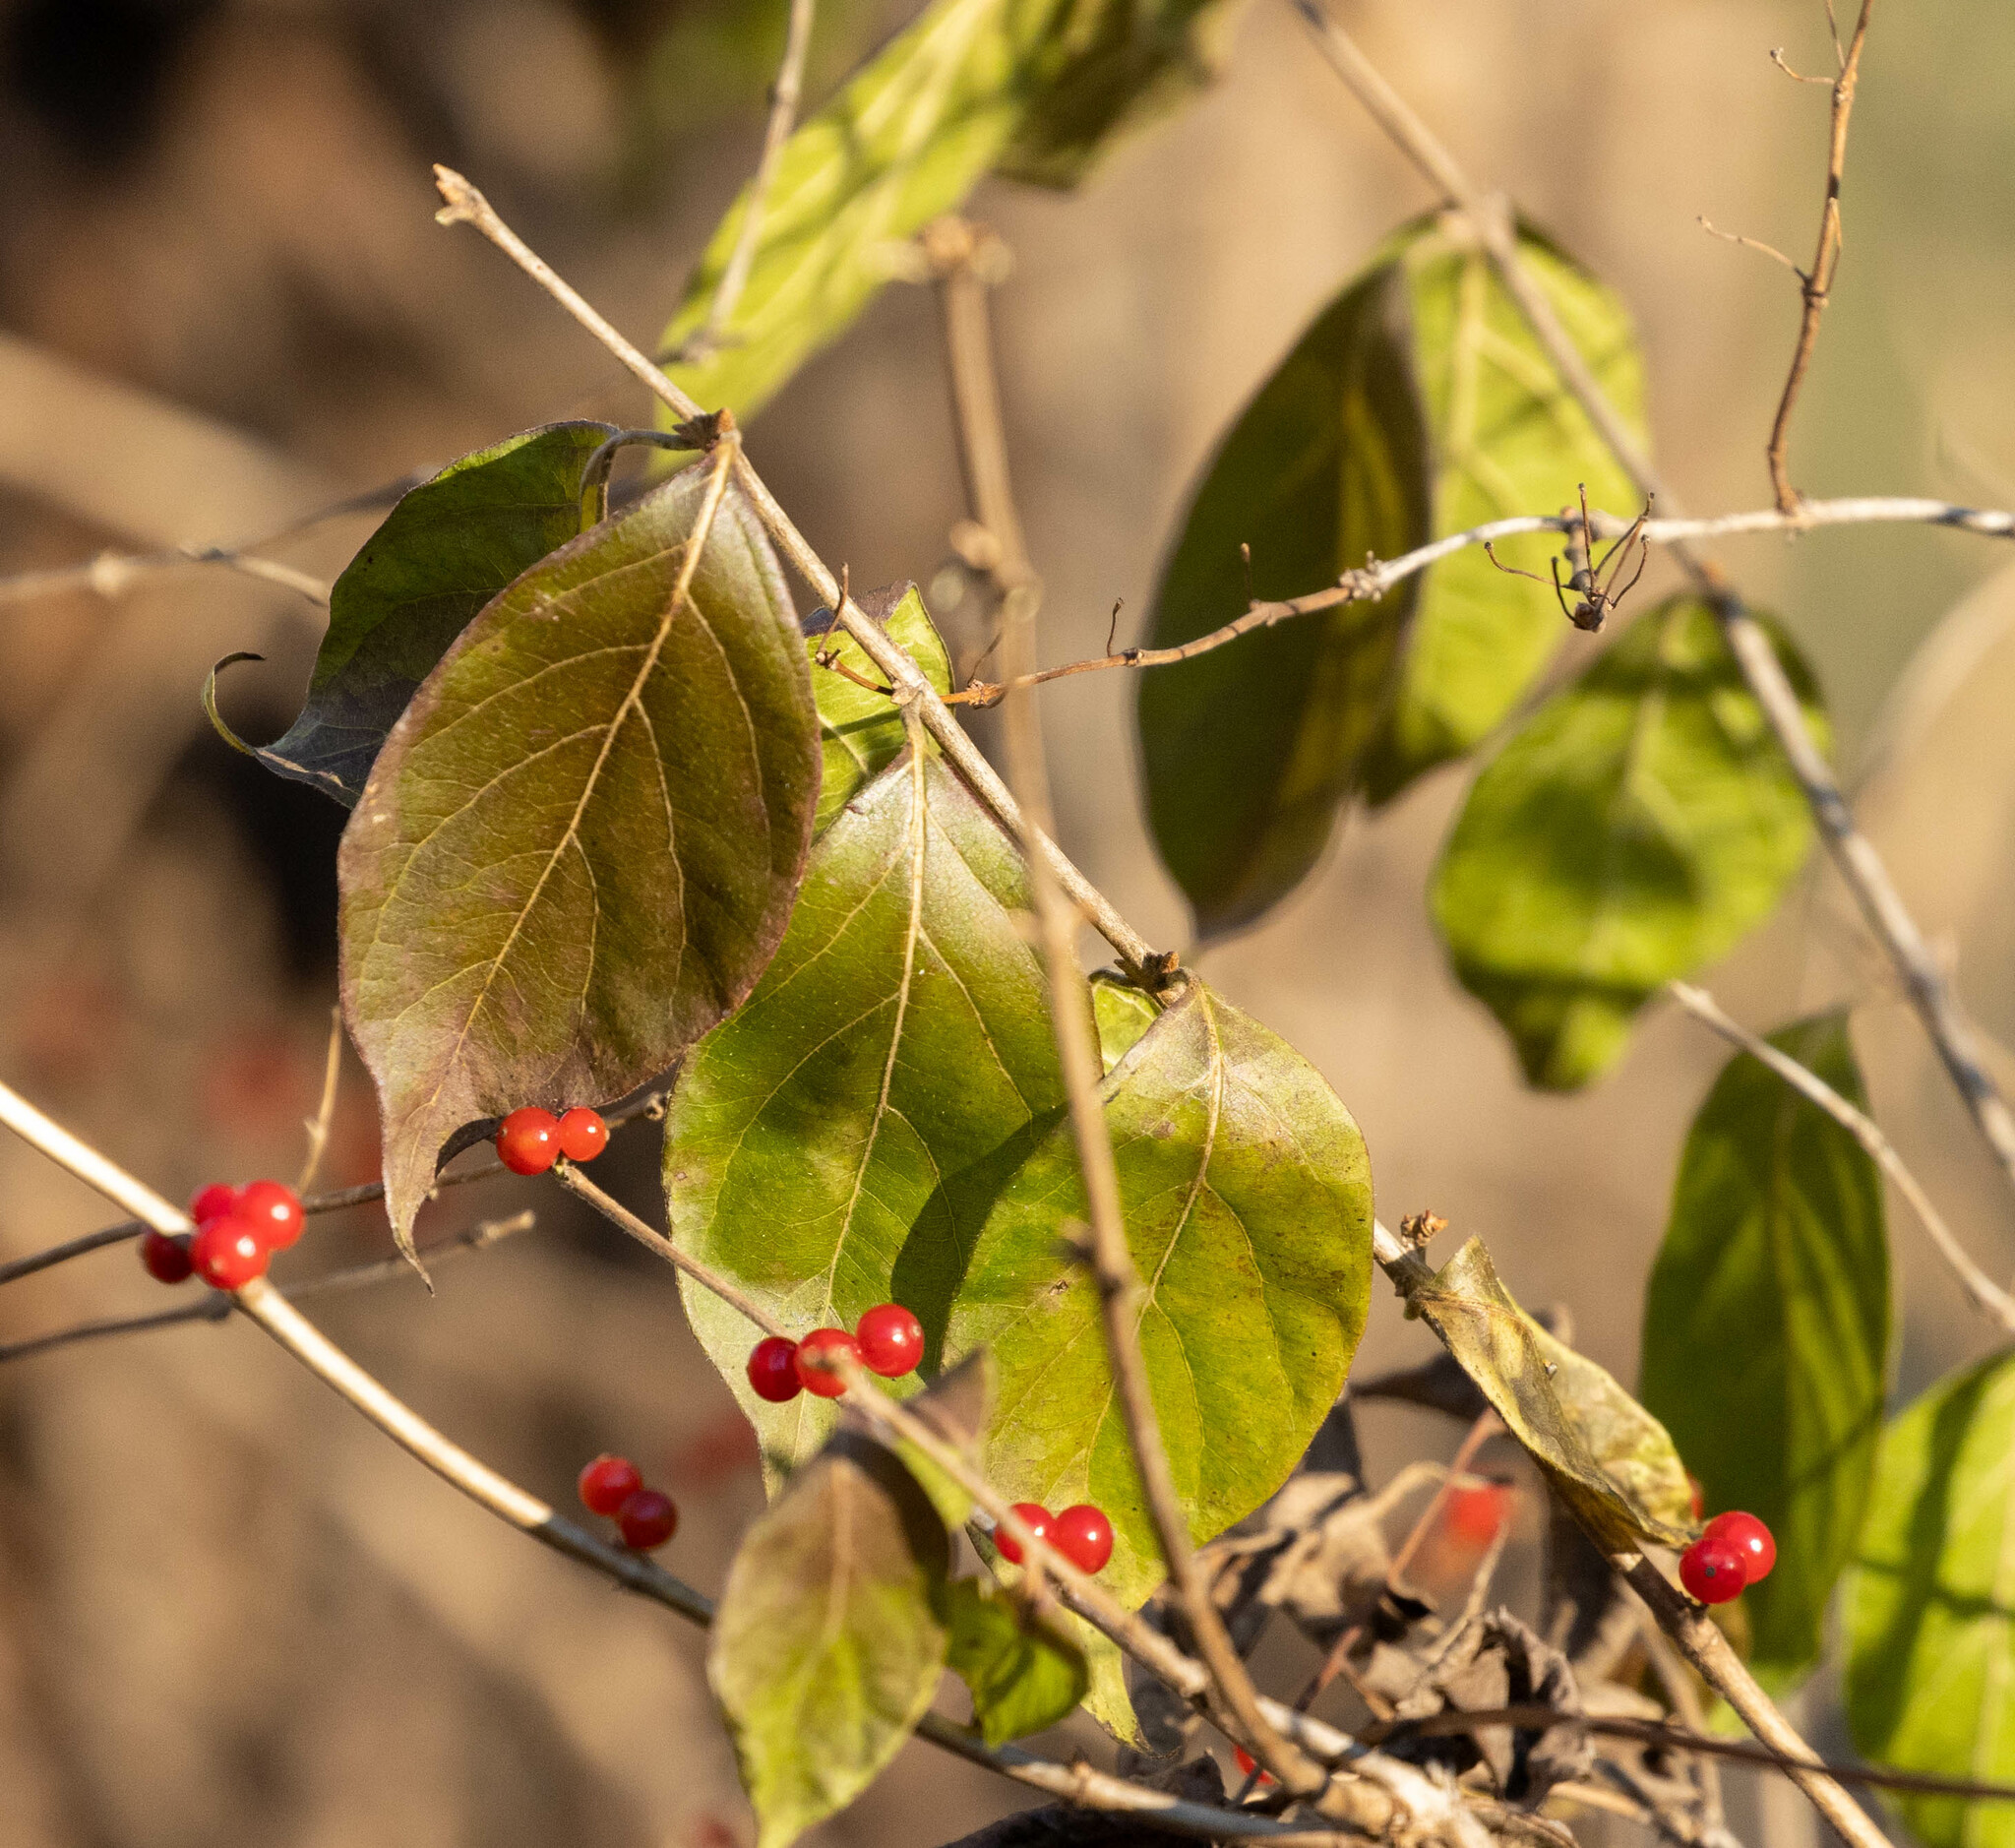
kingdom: Plantae
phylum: Tracheophyta
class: Magnoliopsida
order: Dipsacales
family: Caprifoliaceae
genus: Lonicera
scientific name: Lonicera maackii
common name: Amur honeysuckle
